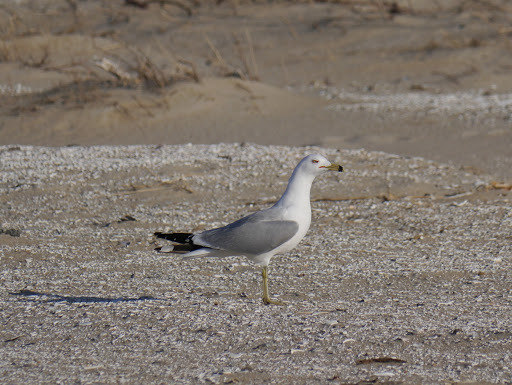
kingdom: Animalia
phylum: Chordata
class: Aves
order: Charadriiformes
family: Laridae
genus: Larus
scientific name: Larus delawarensis
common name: Ring-billed gull
